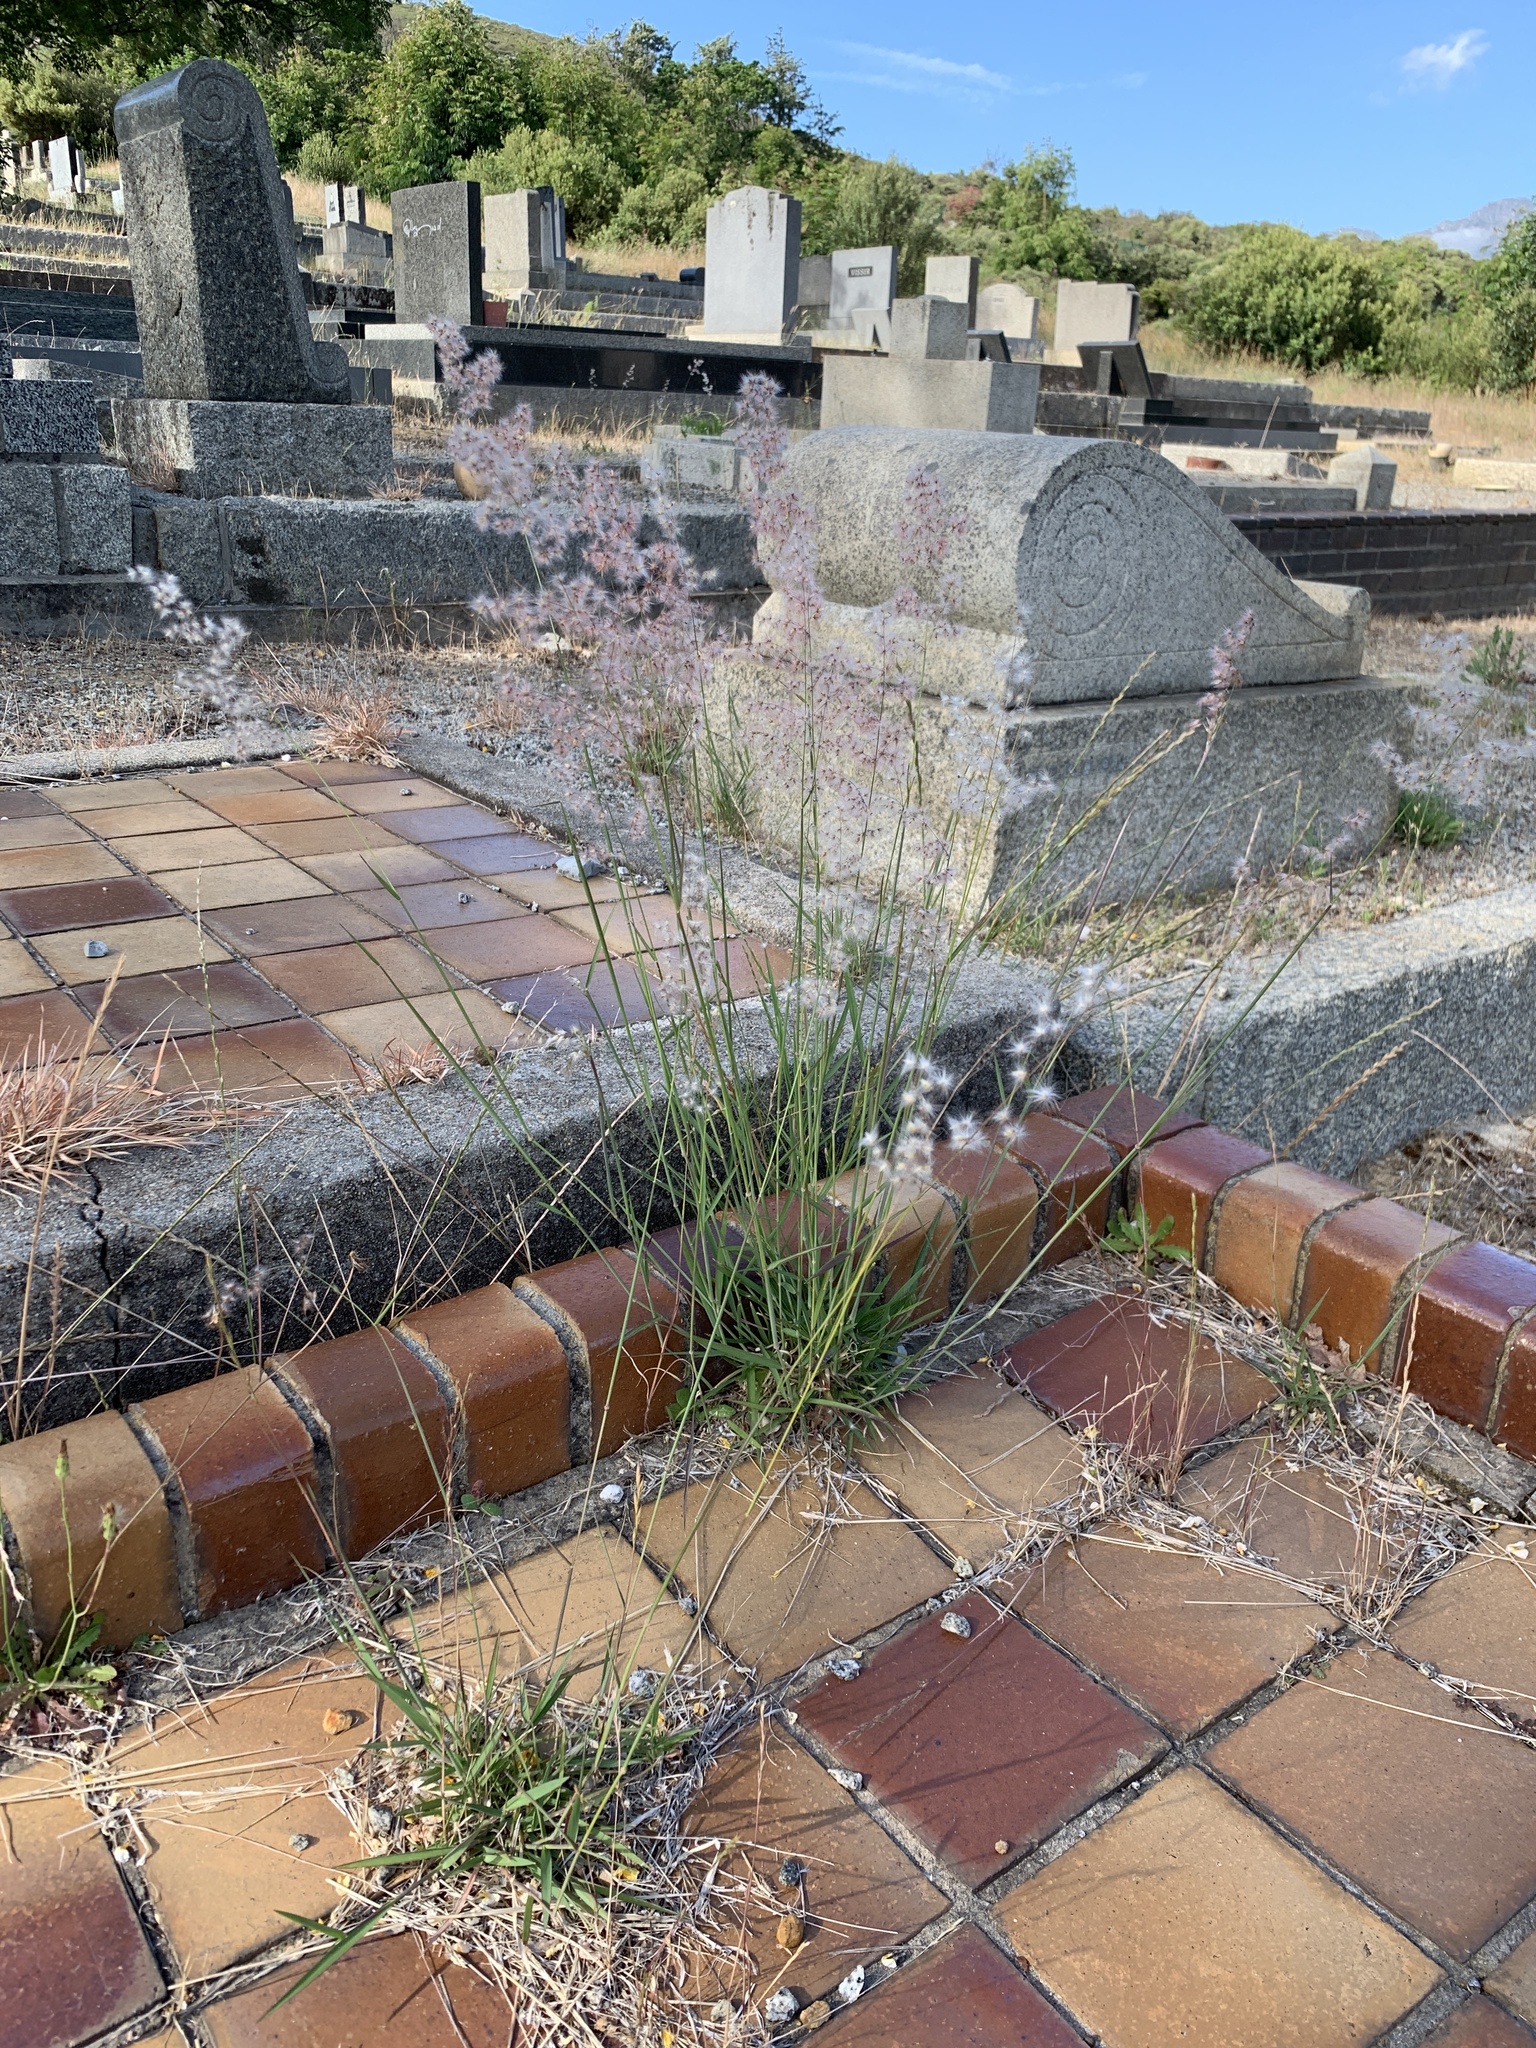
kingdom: Plantae
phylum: Tracheophyta
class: Liliopsida
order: Poales
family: Poaceae
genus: Melinis
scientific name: Melinis repens
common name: Rose natal grass
